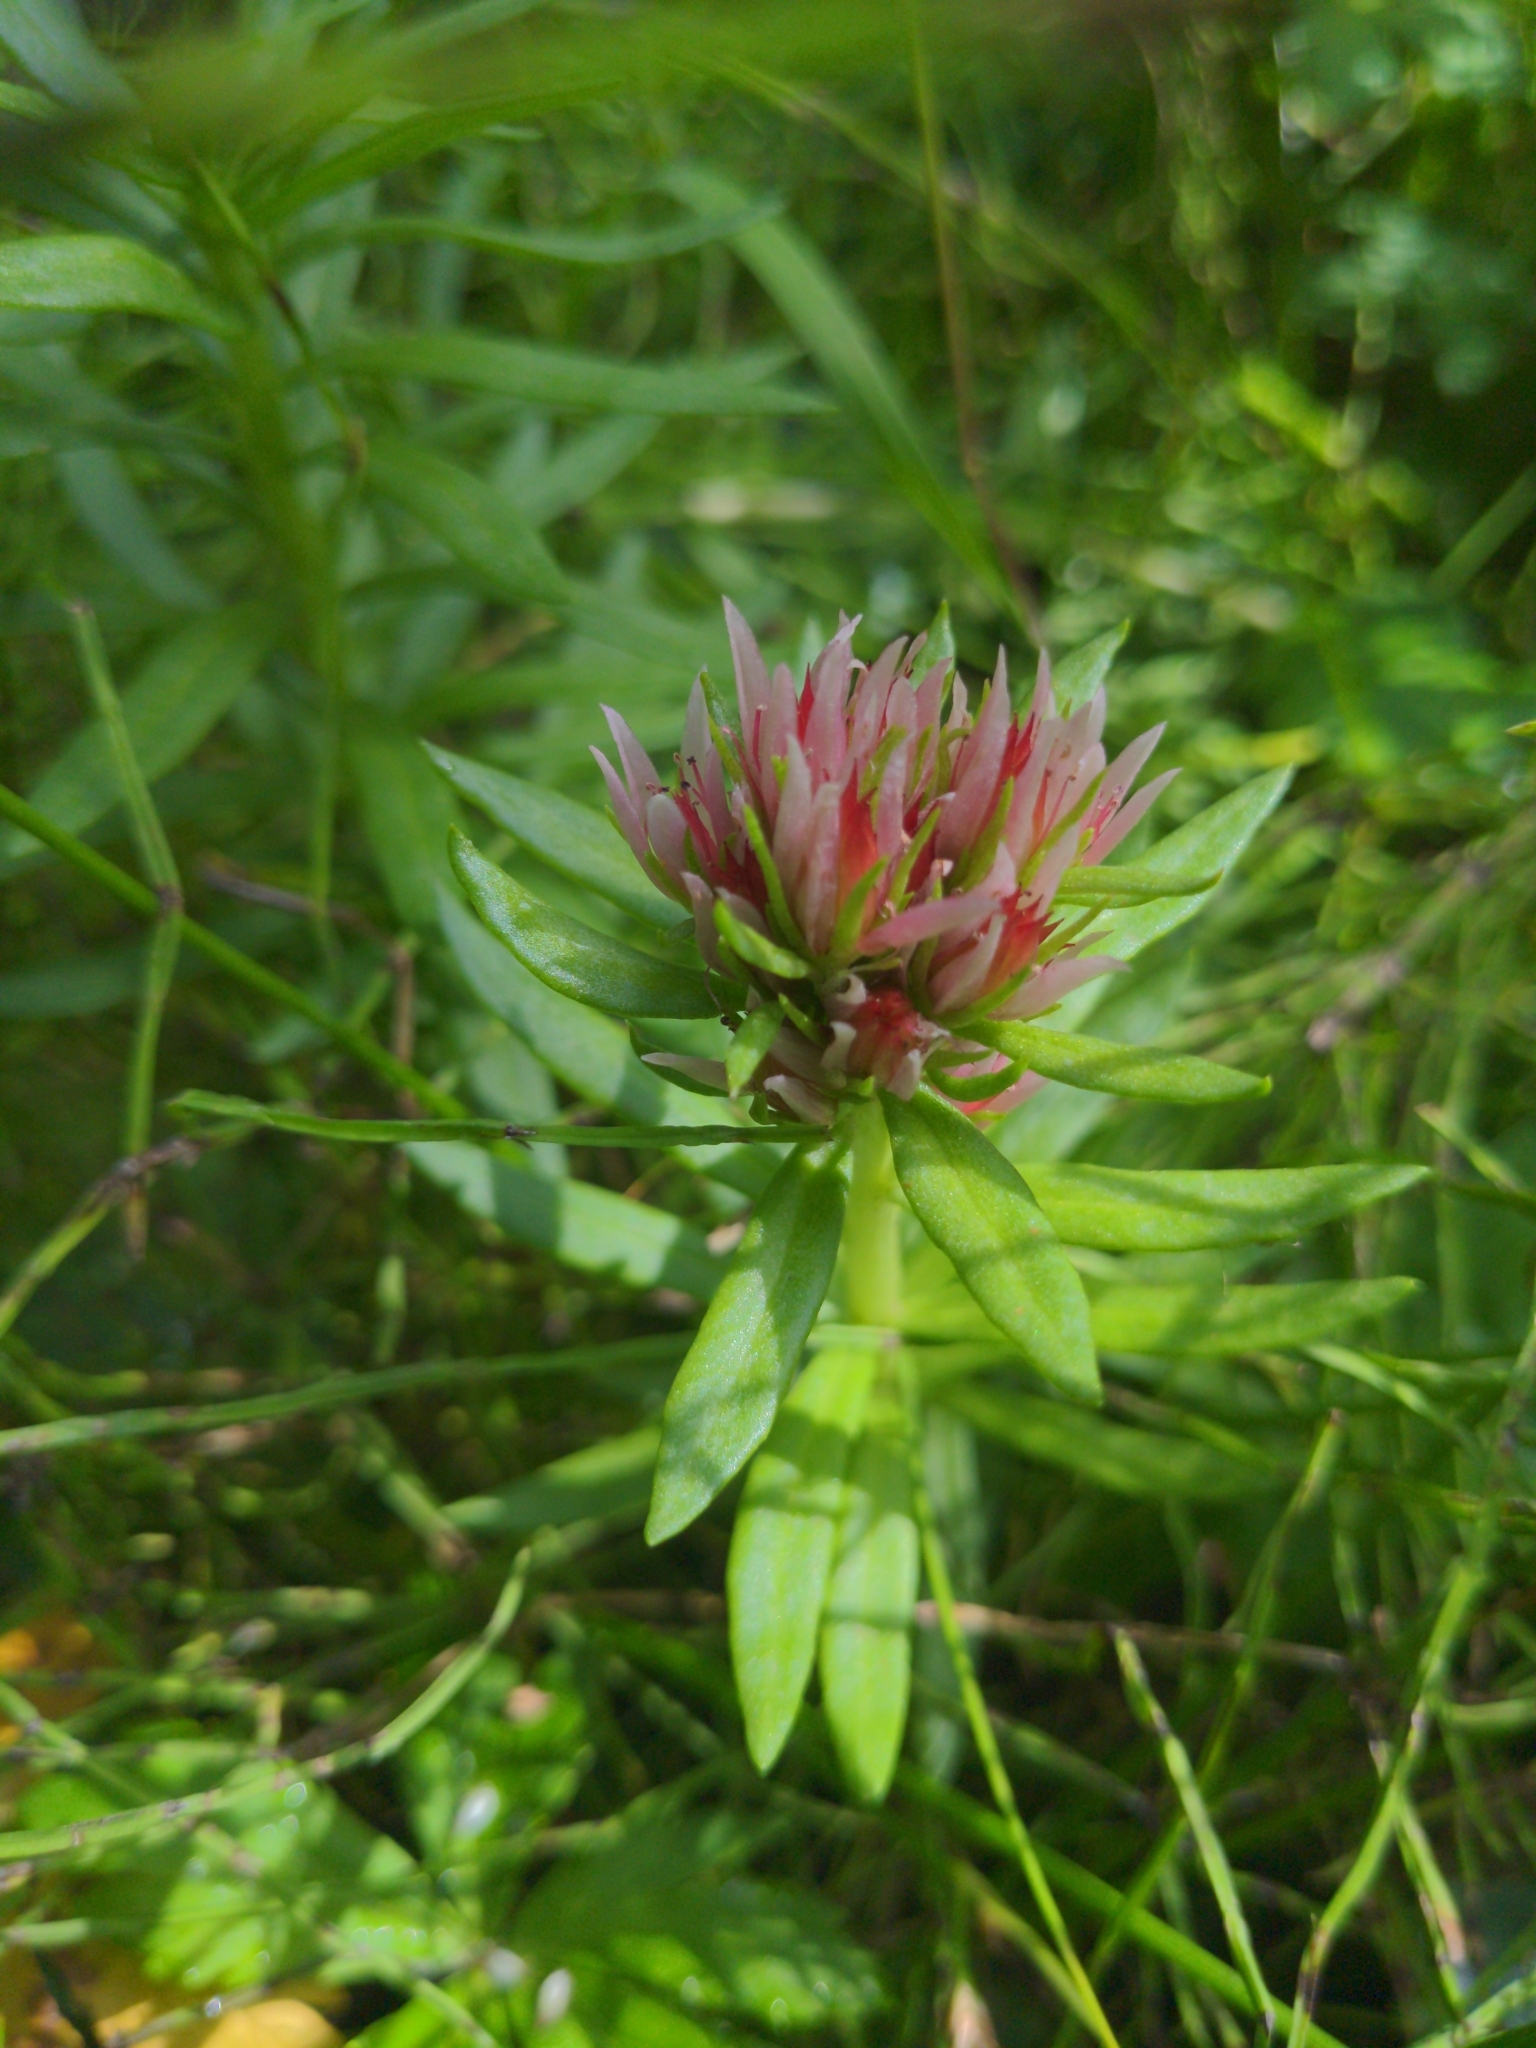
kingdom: Plantae
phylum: Tracheophyta
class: Magnoliopsida
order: Saxifragales
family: Crassulaceae
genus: Rhodiola
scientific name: Rhodiola rhodantha
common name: Red orpine
